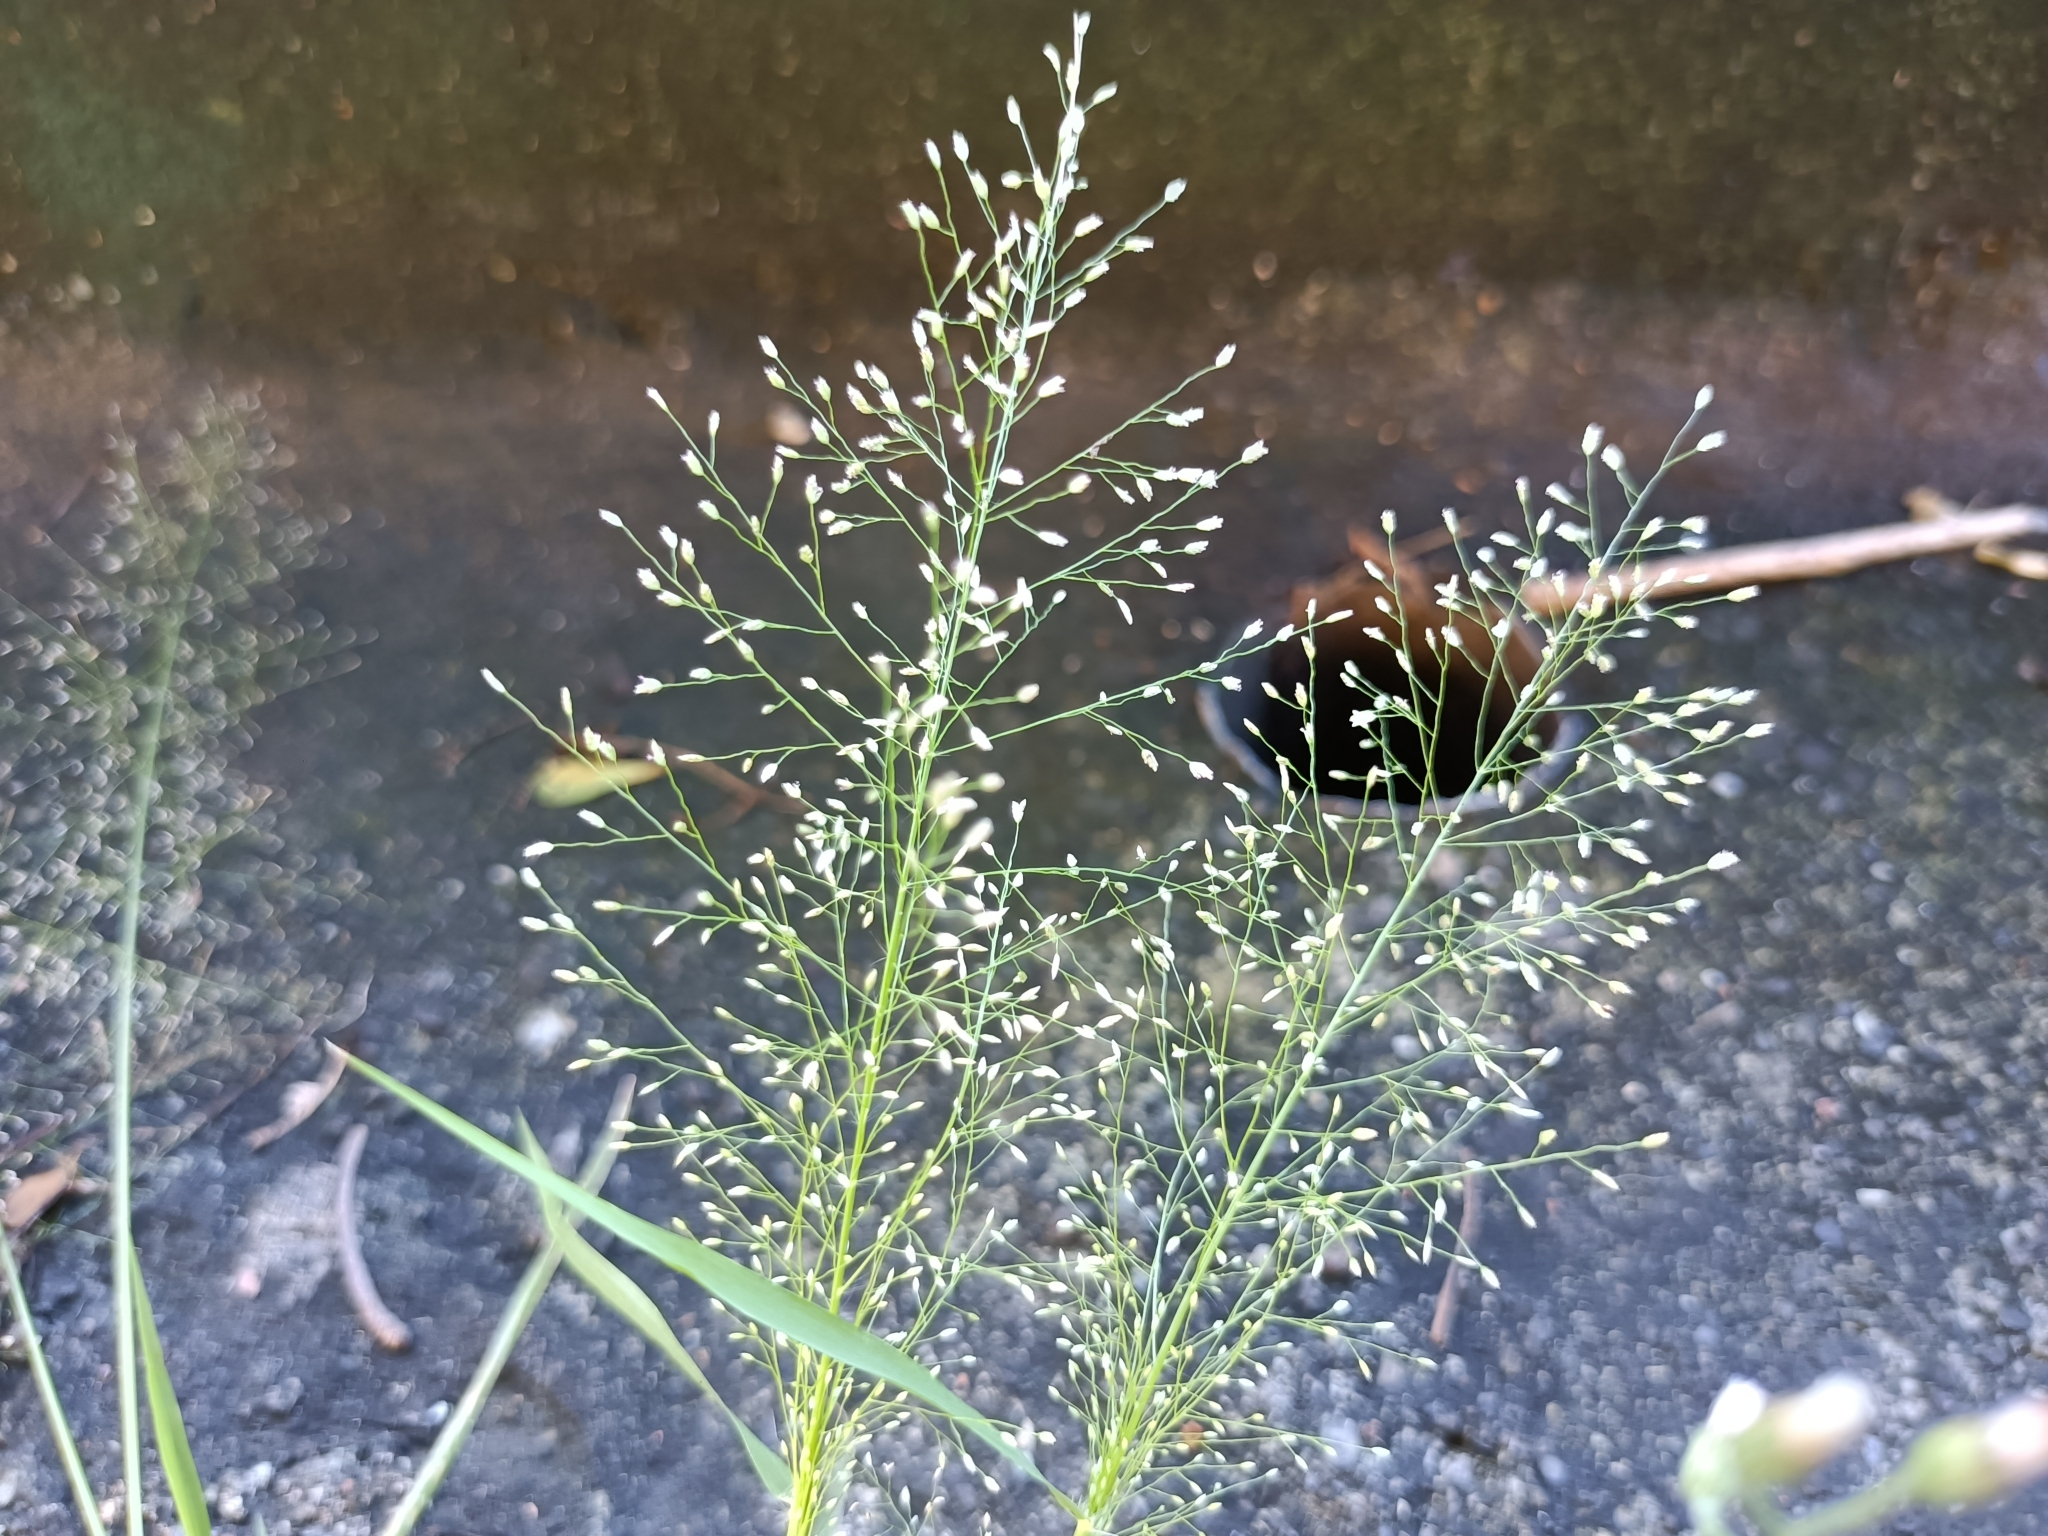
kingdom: Plantae
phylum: Tracheophyta
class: Liliopsida
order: Poales
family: Poaceae
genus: Eragrostis
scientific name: Eragrostis tenella
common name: Japanese lovegrass
